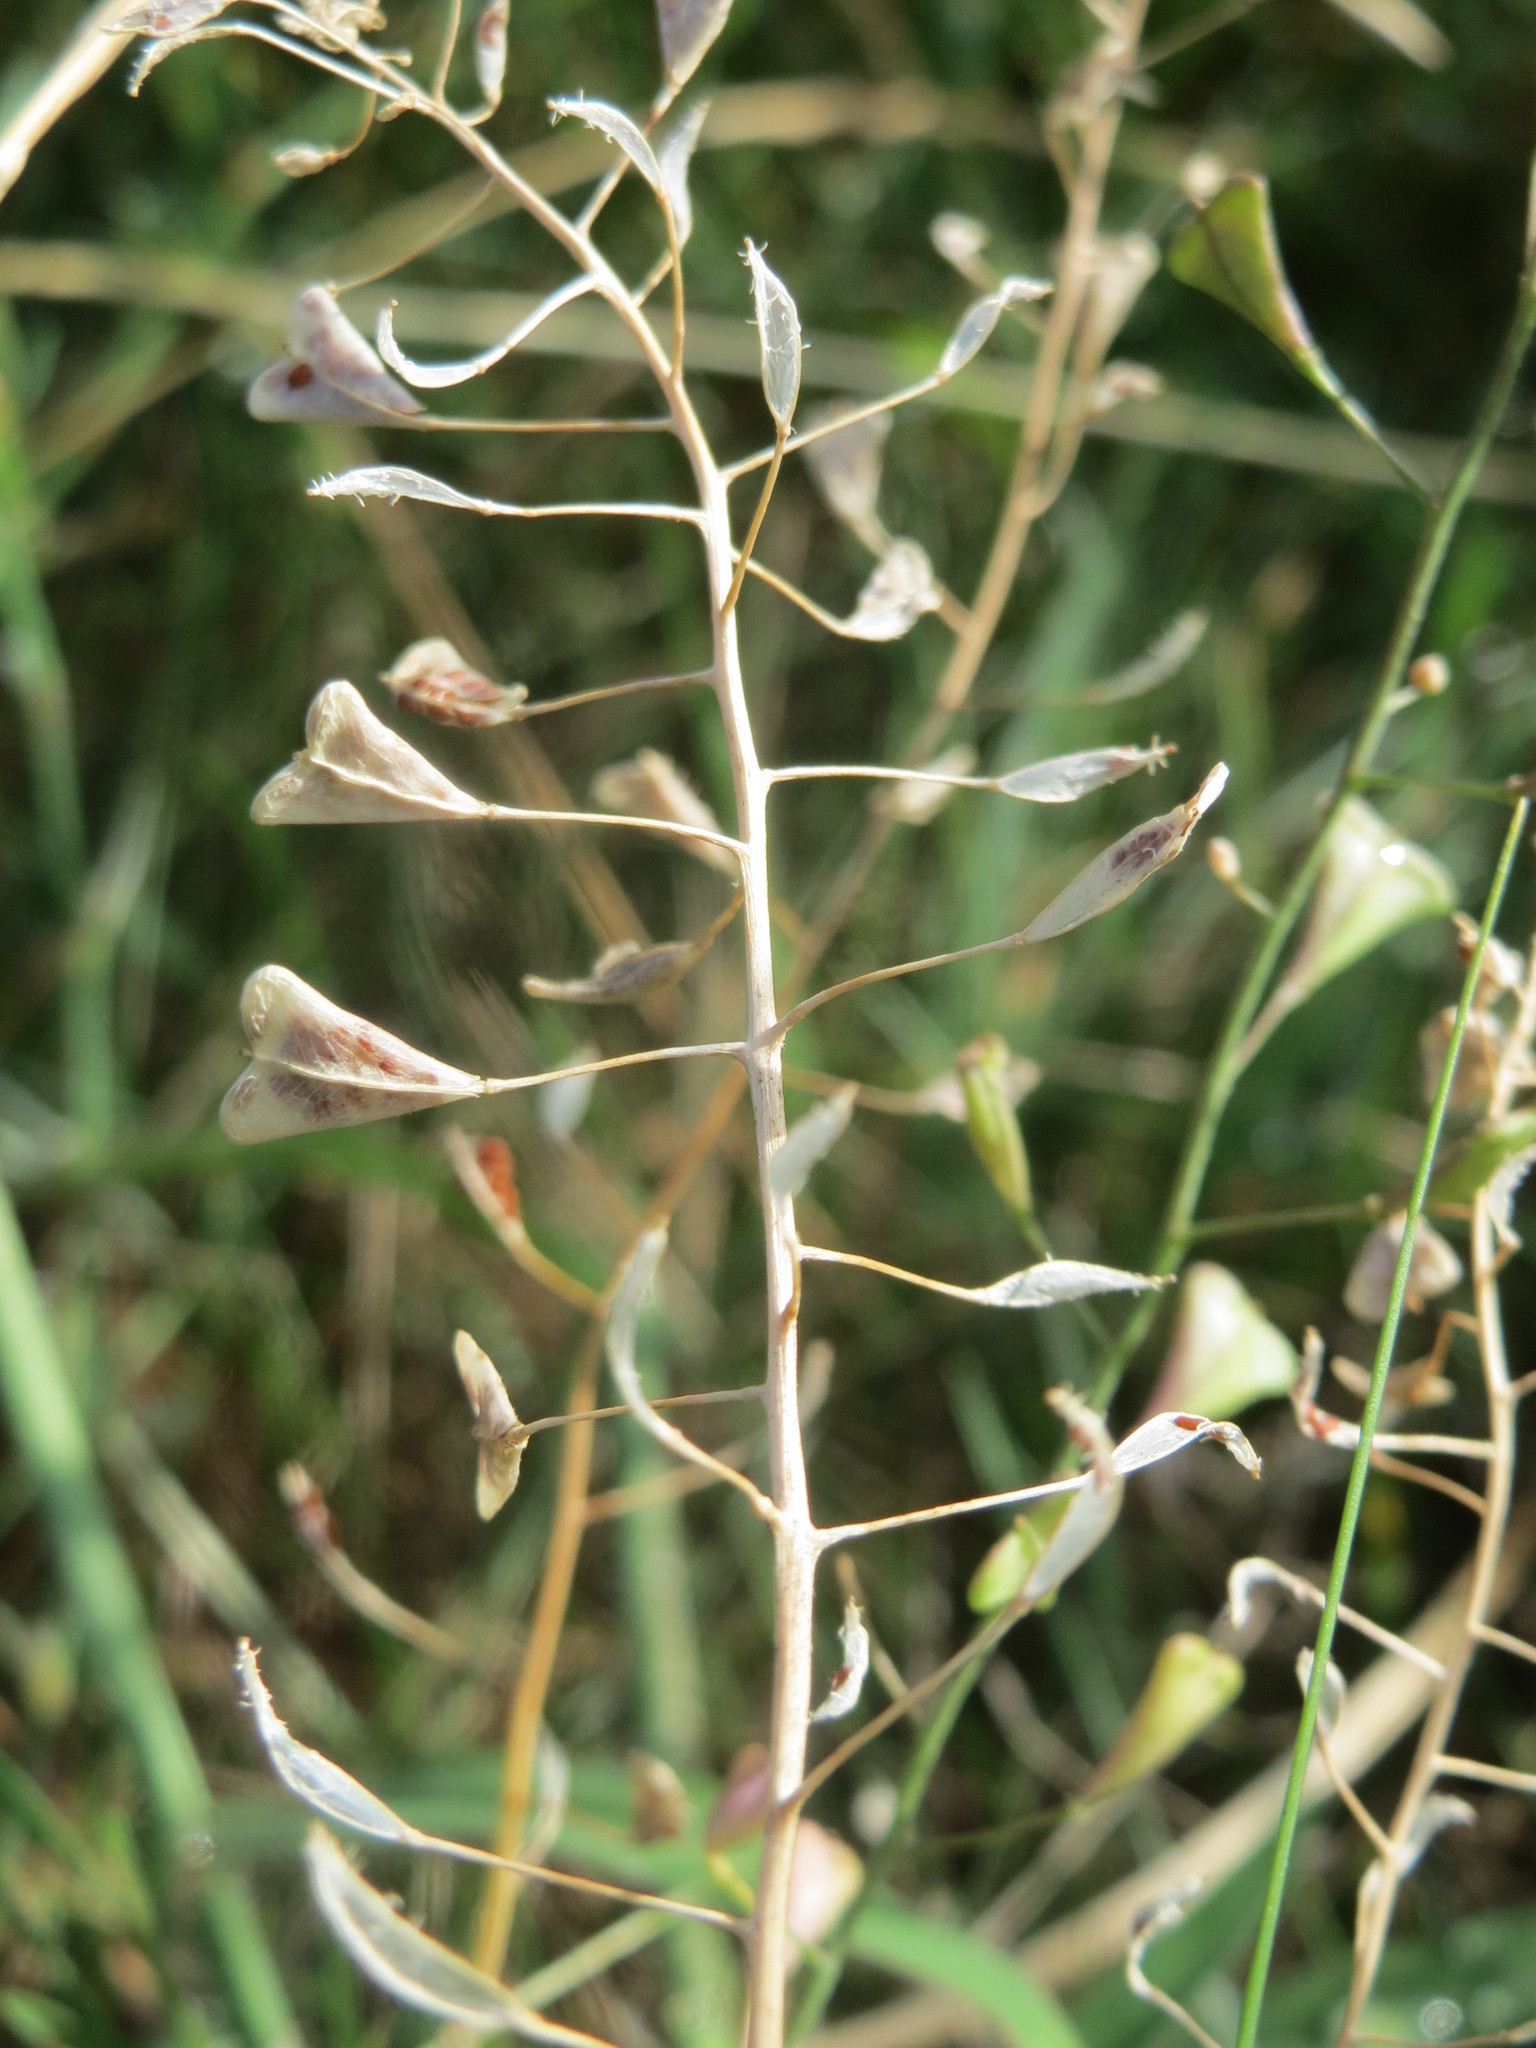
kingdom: Plantae
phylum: Tracheophyta
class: Magnoliopsida
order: Brassicales
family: Brassicaceae
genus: Capsella
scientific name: Capsella bursa-pastoris
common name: Shepherd's purse
